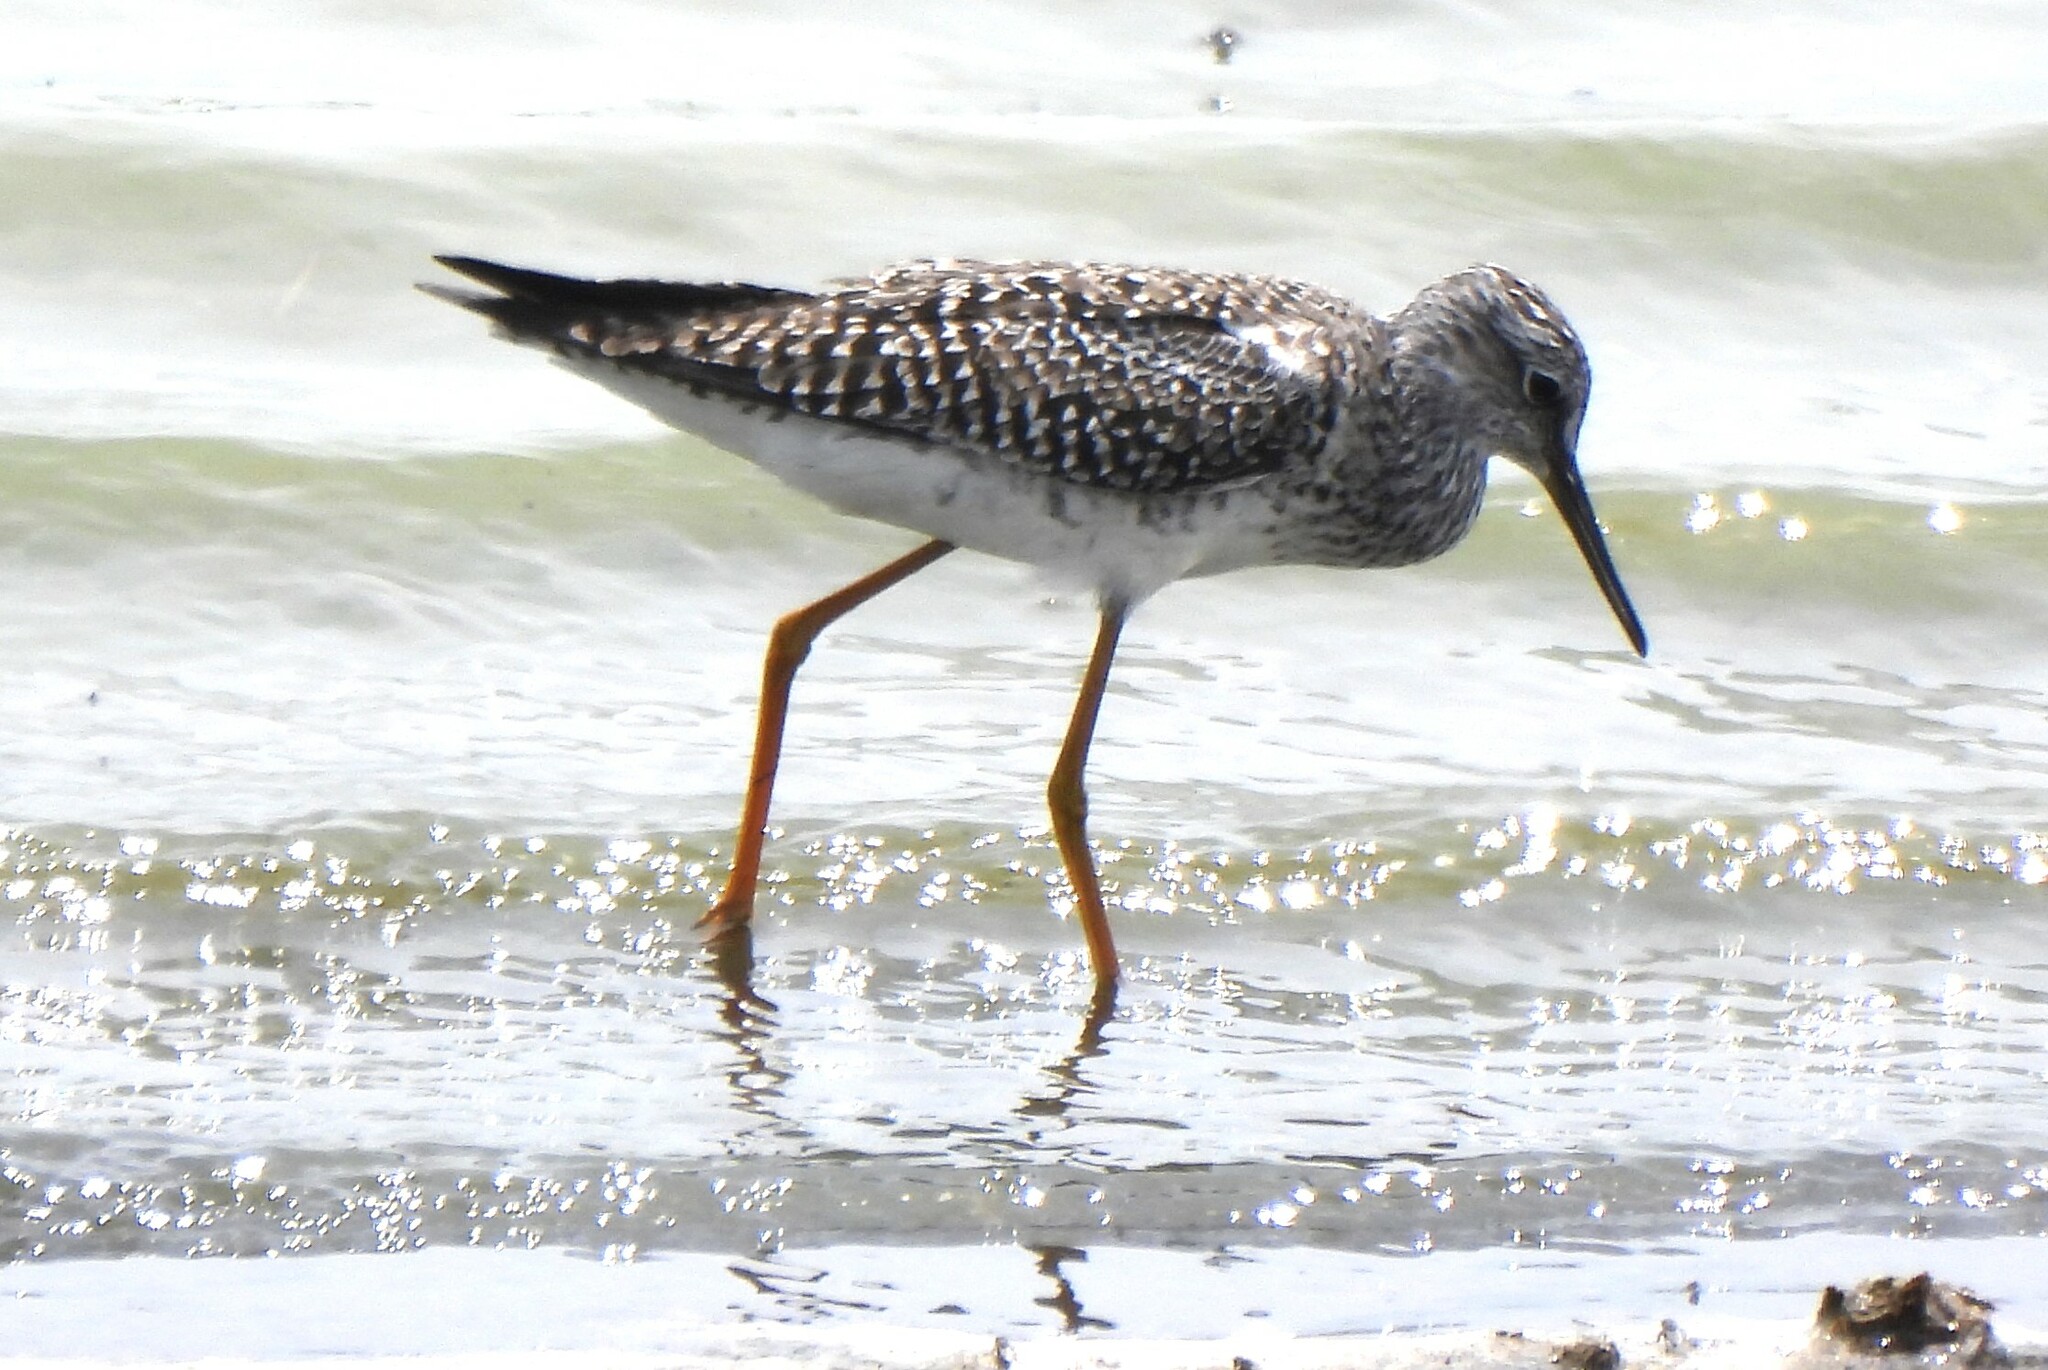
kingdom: Animalia
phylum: Chordata
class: Aves
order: Charadriiformes
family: Scolopacidae
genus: Tringa
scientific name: Tringa flavipes
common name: Lesser yellowlegs
